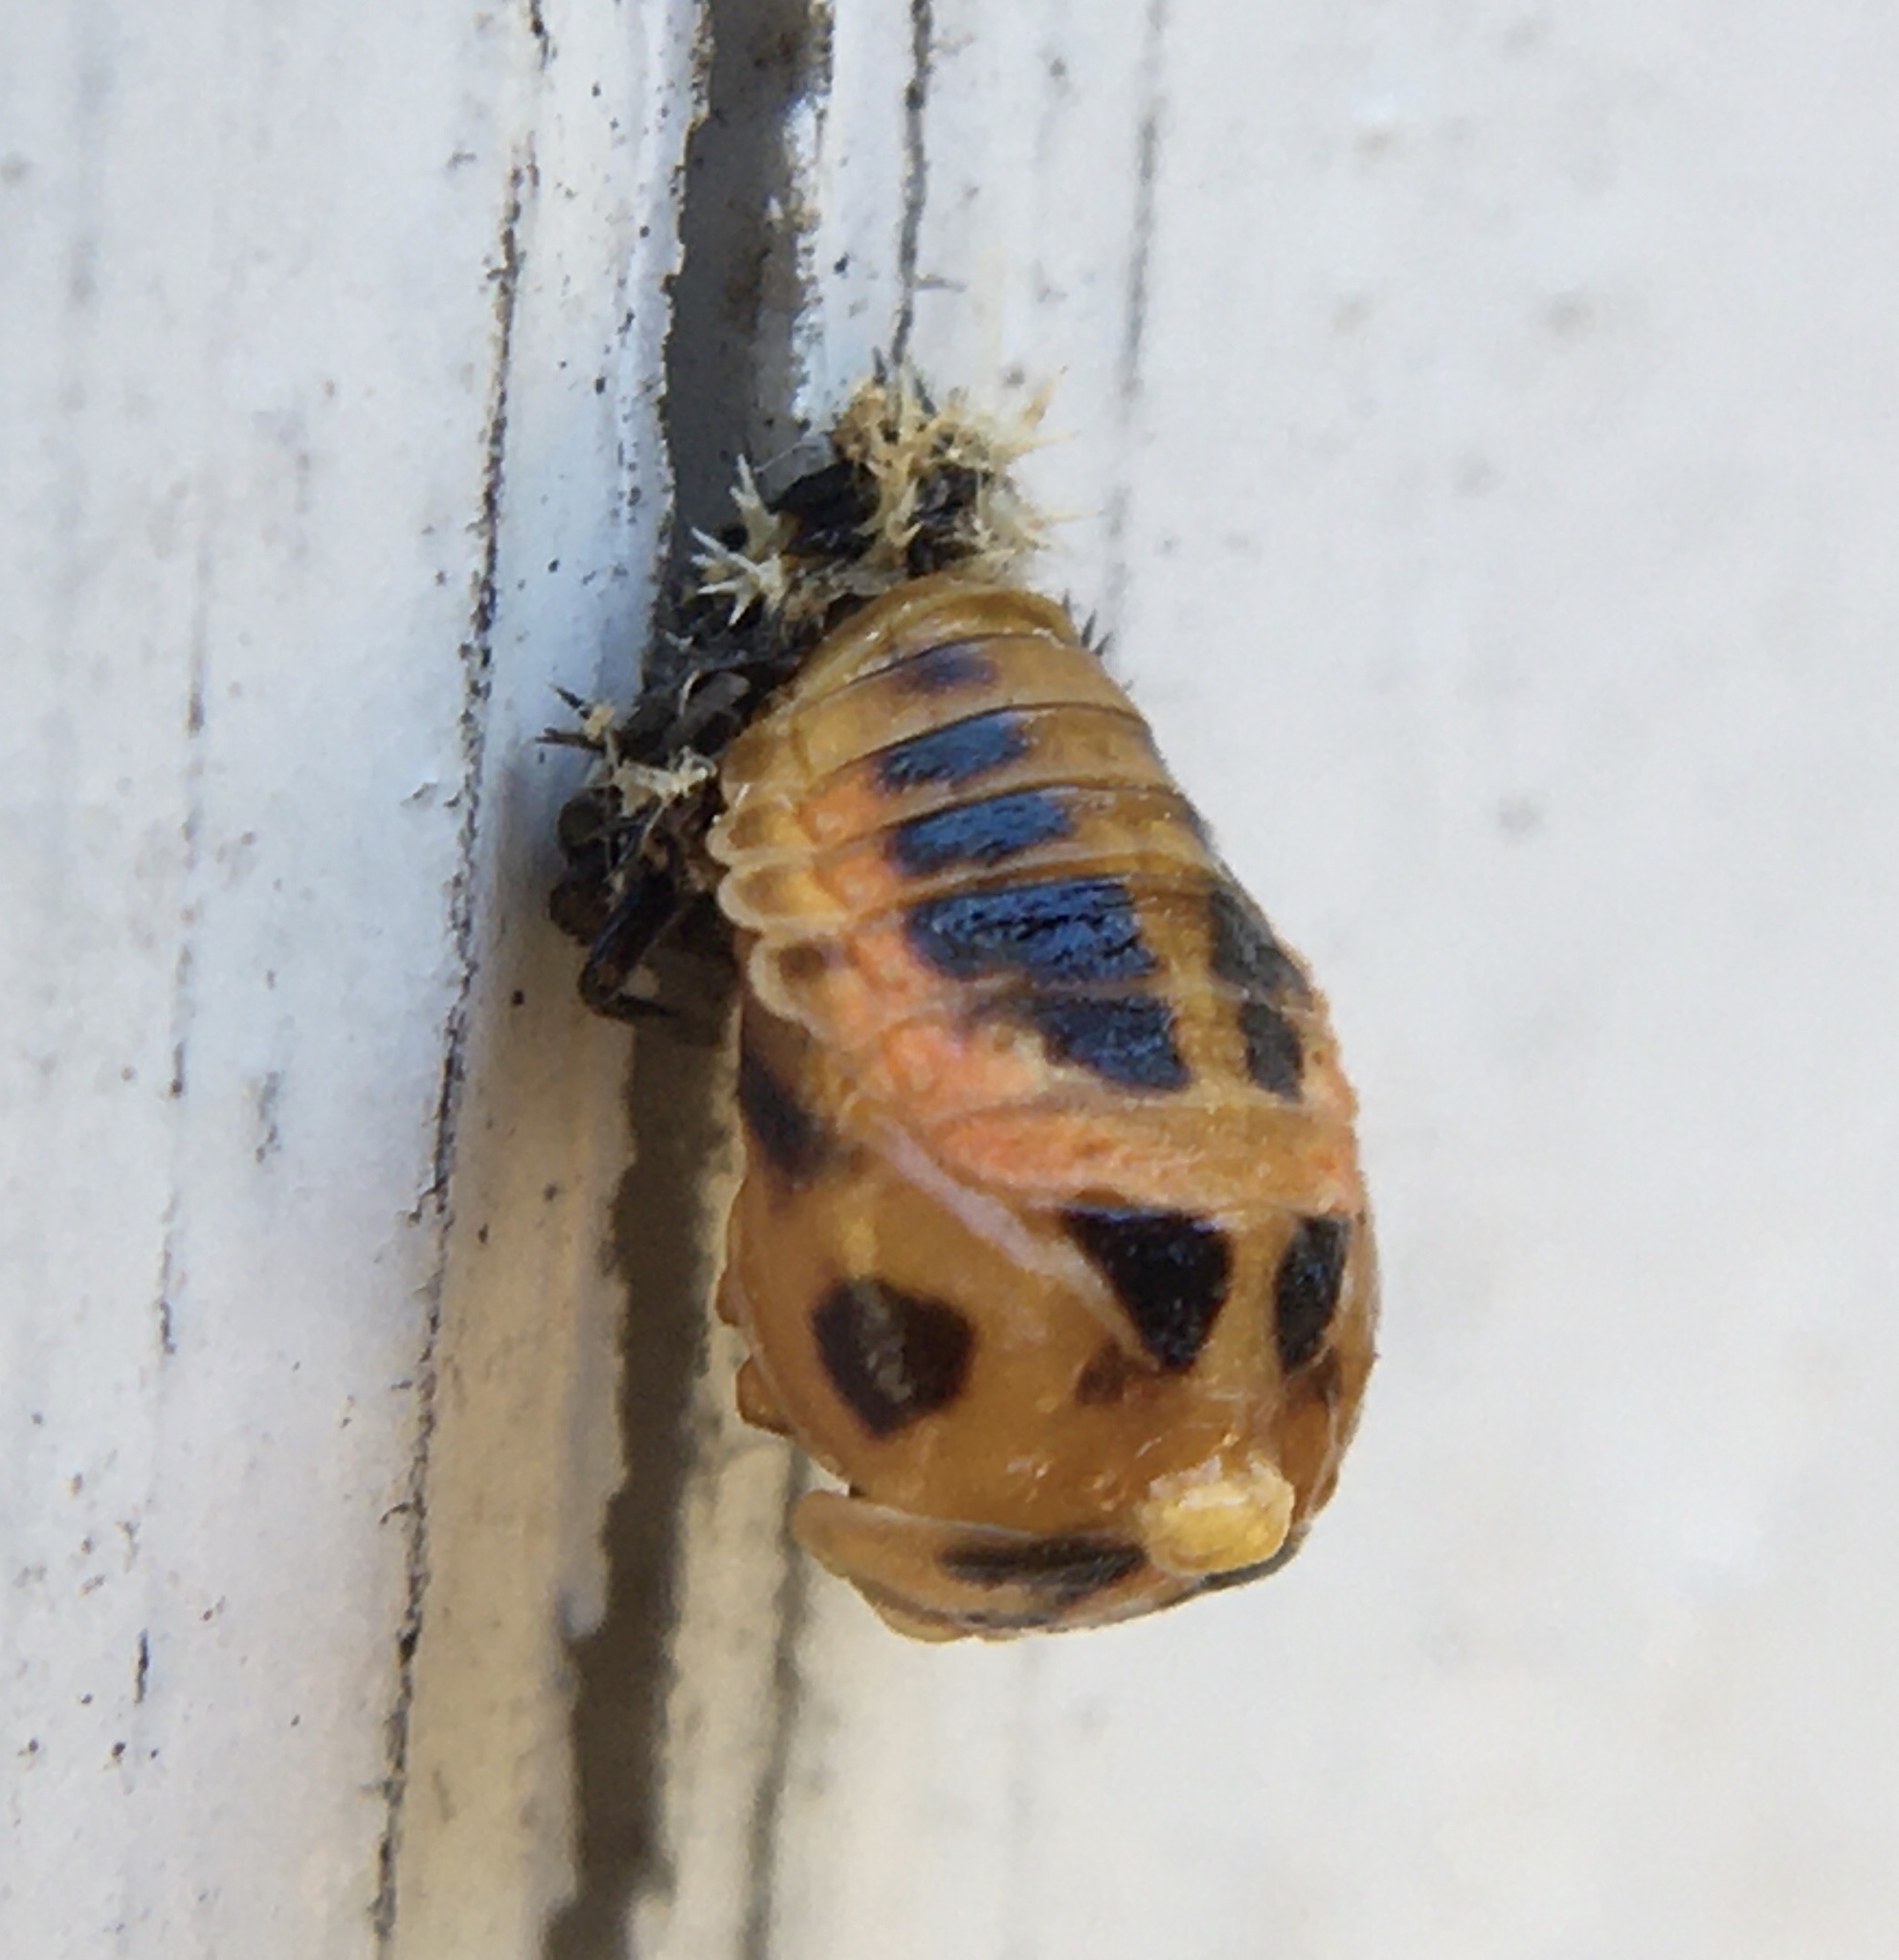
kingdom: Animalia
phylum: Arthropoda
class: Insecta
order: Coleoptera
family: Coccinellidae
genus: Harmonia
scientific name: Harmonia axyridis
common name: Harlequin ladybird
